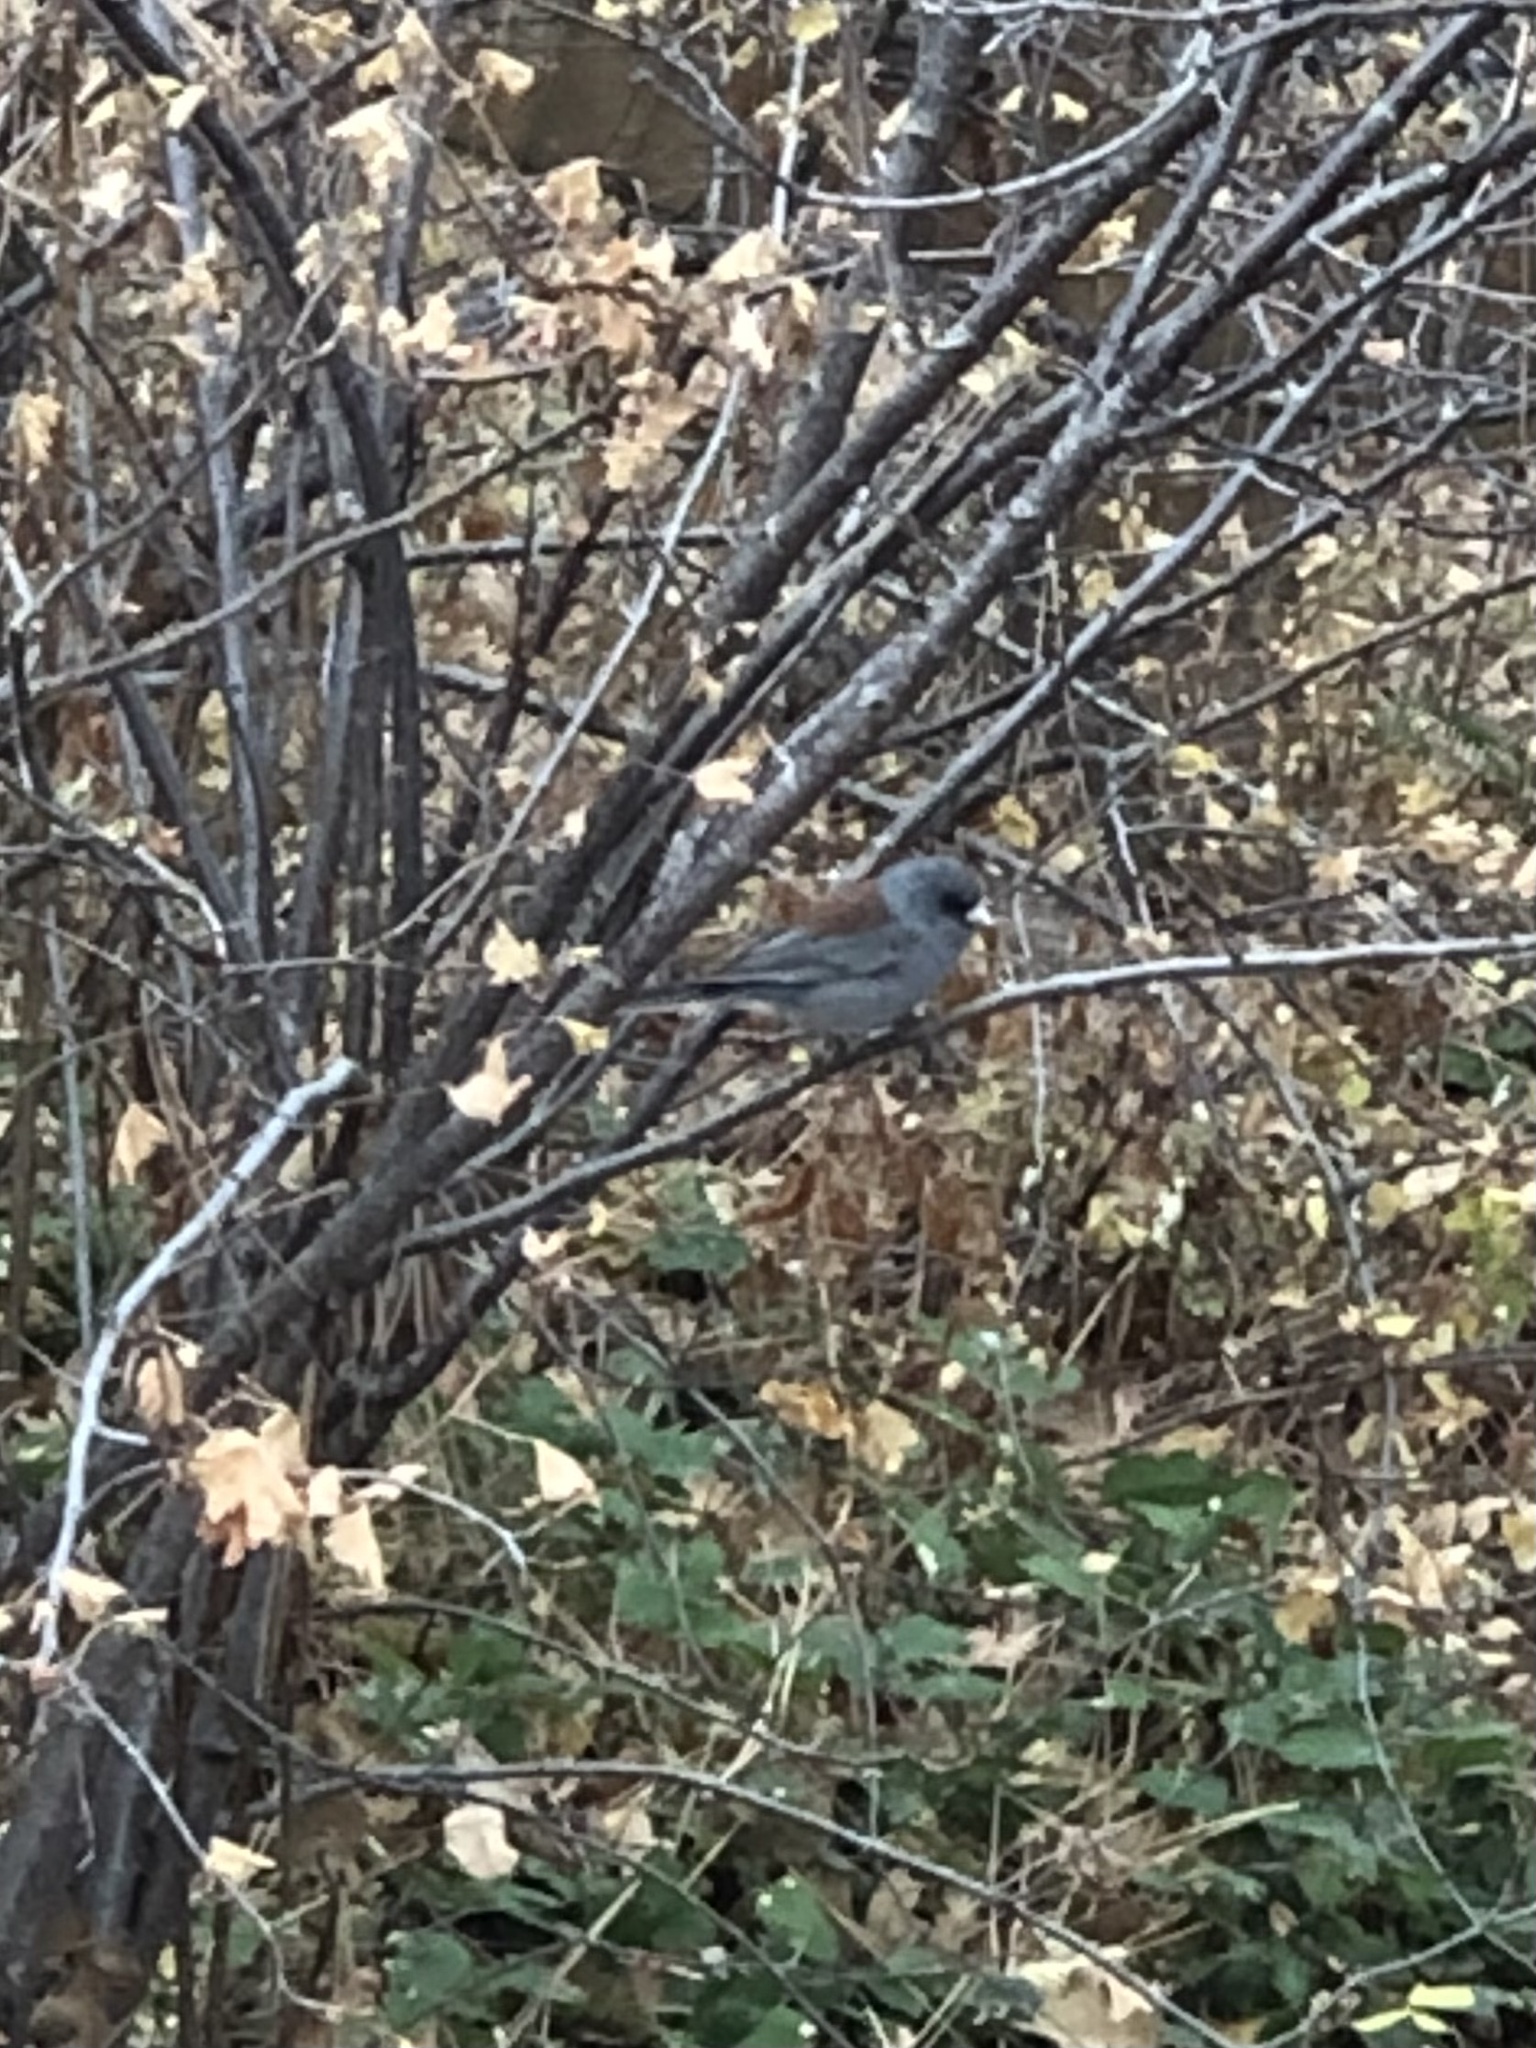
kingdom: Animalia
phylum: Chordata
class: Aves
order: Passeriformes
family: Passerellidae
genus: Junco
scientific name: Junco hyemalis
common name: Dark-eyed junco
